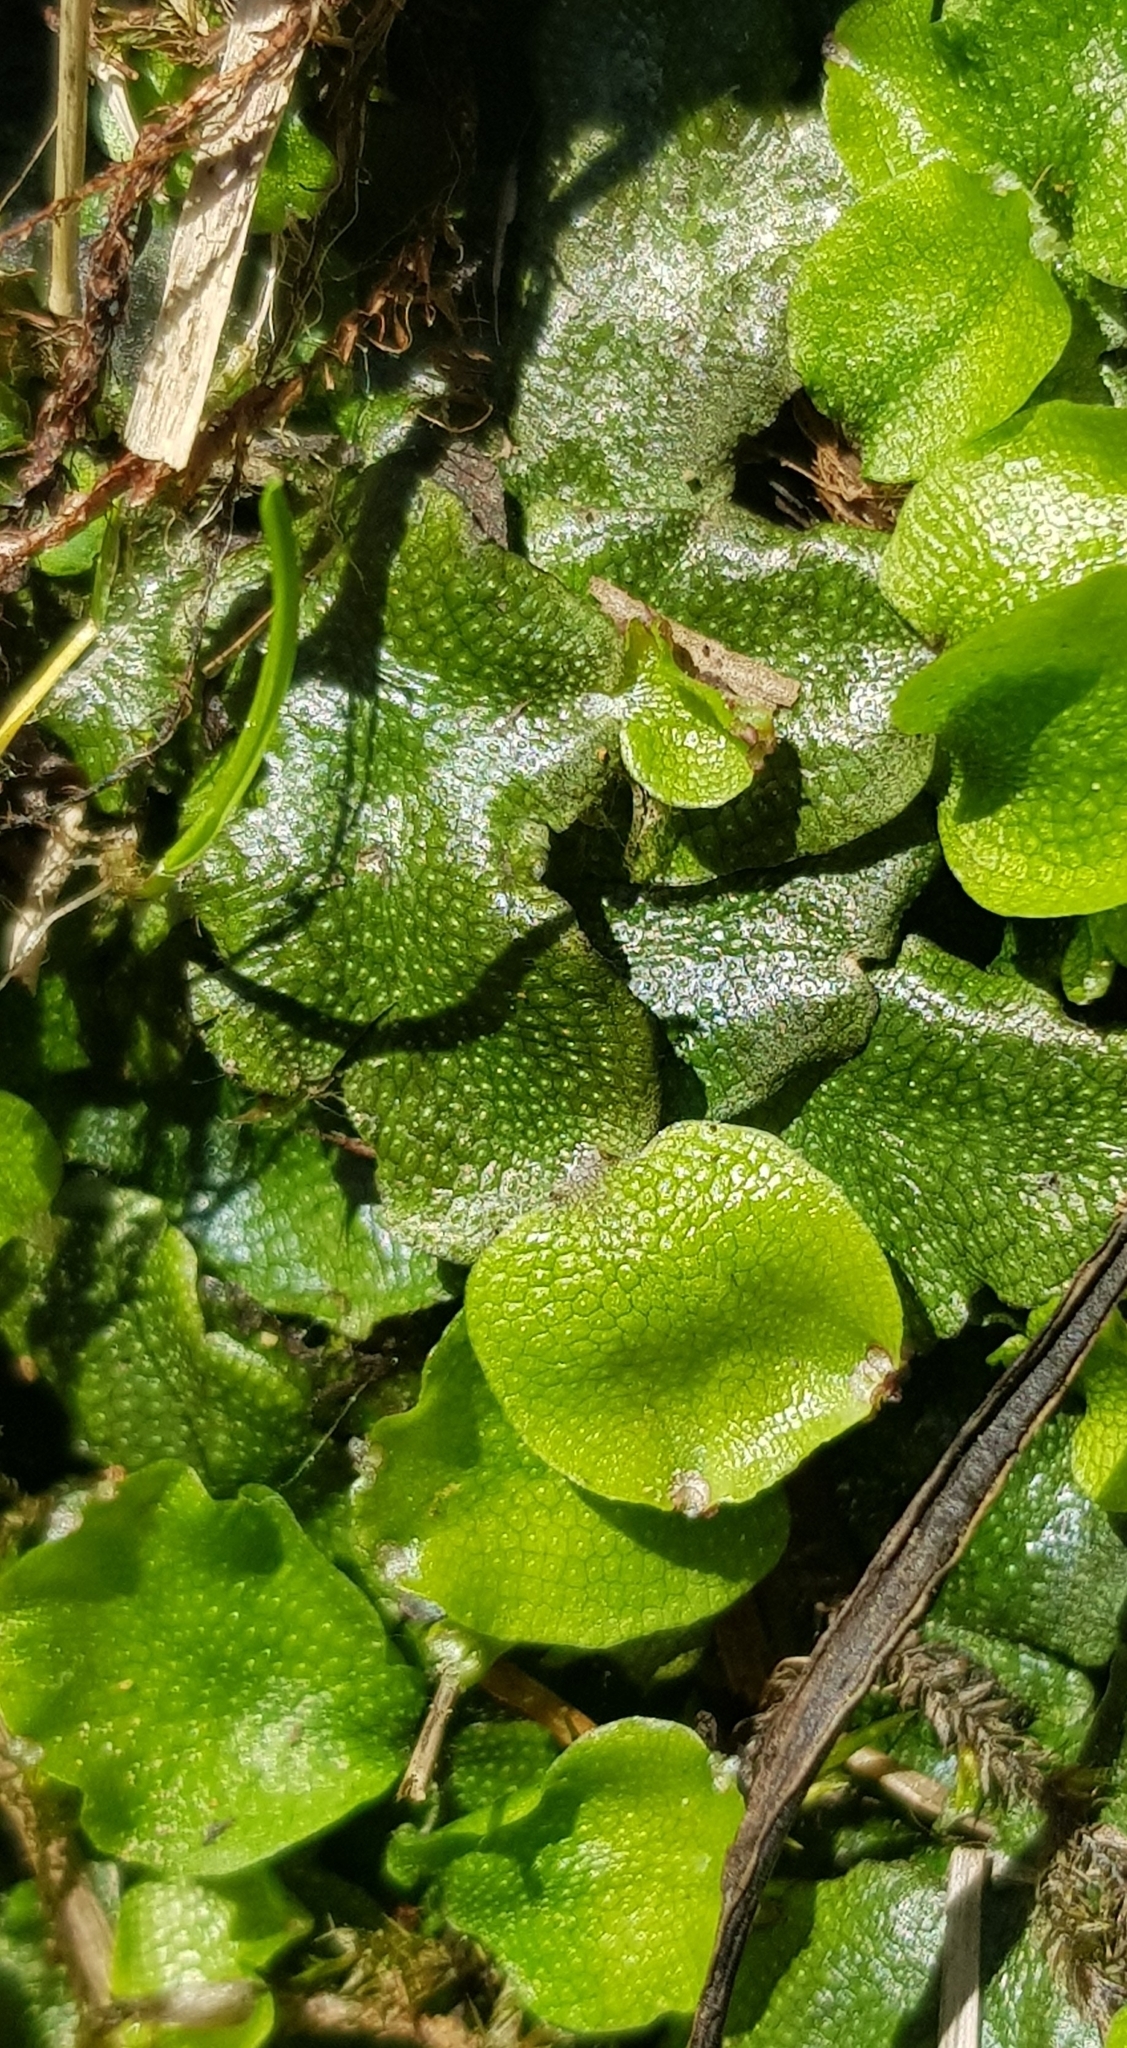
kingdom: Plantae
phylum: Marchantiophyta
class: Marchantiopsida
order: Marchantiales
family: Conocephalaceae
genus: Conocephalum
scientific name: Conocephalum conicum
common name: Great scented liverwort
